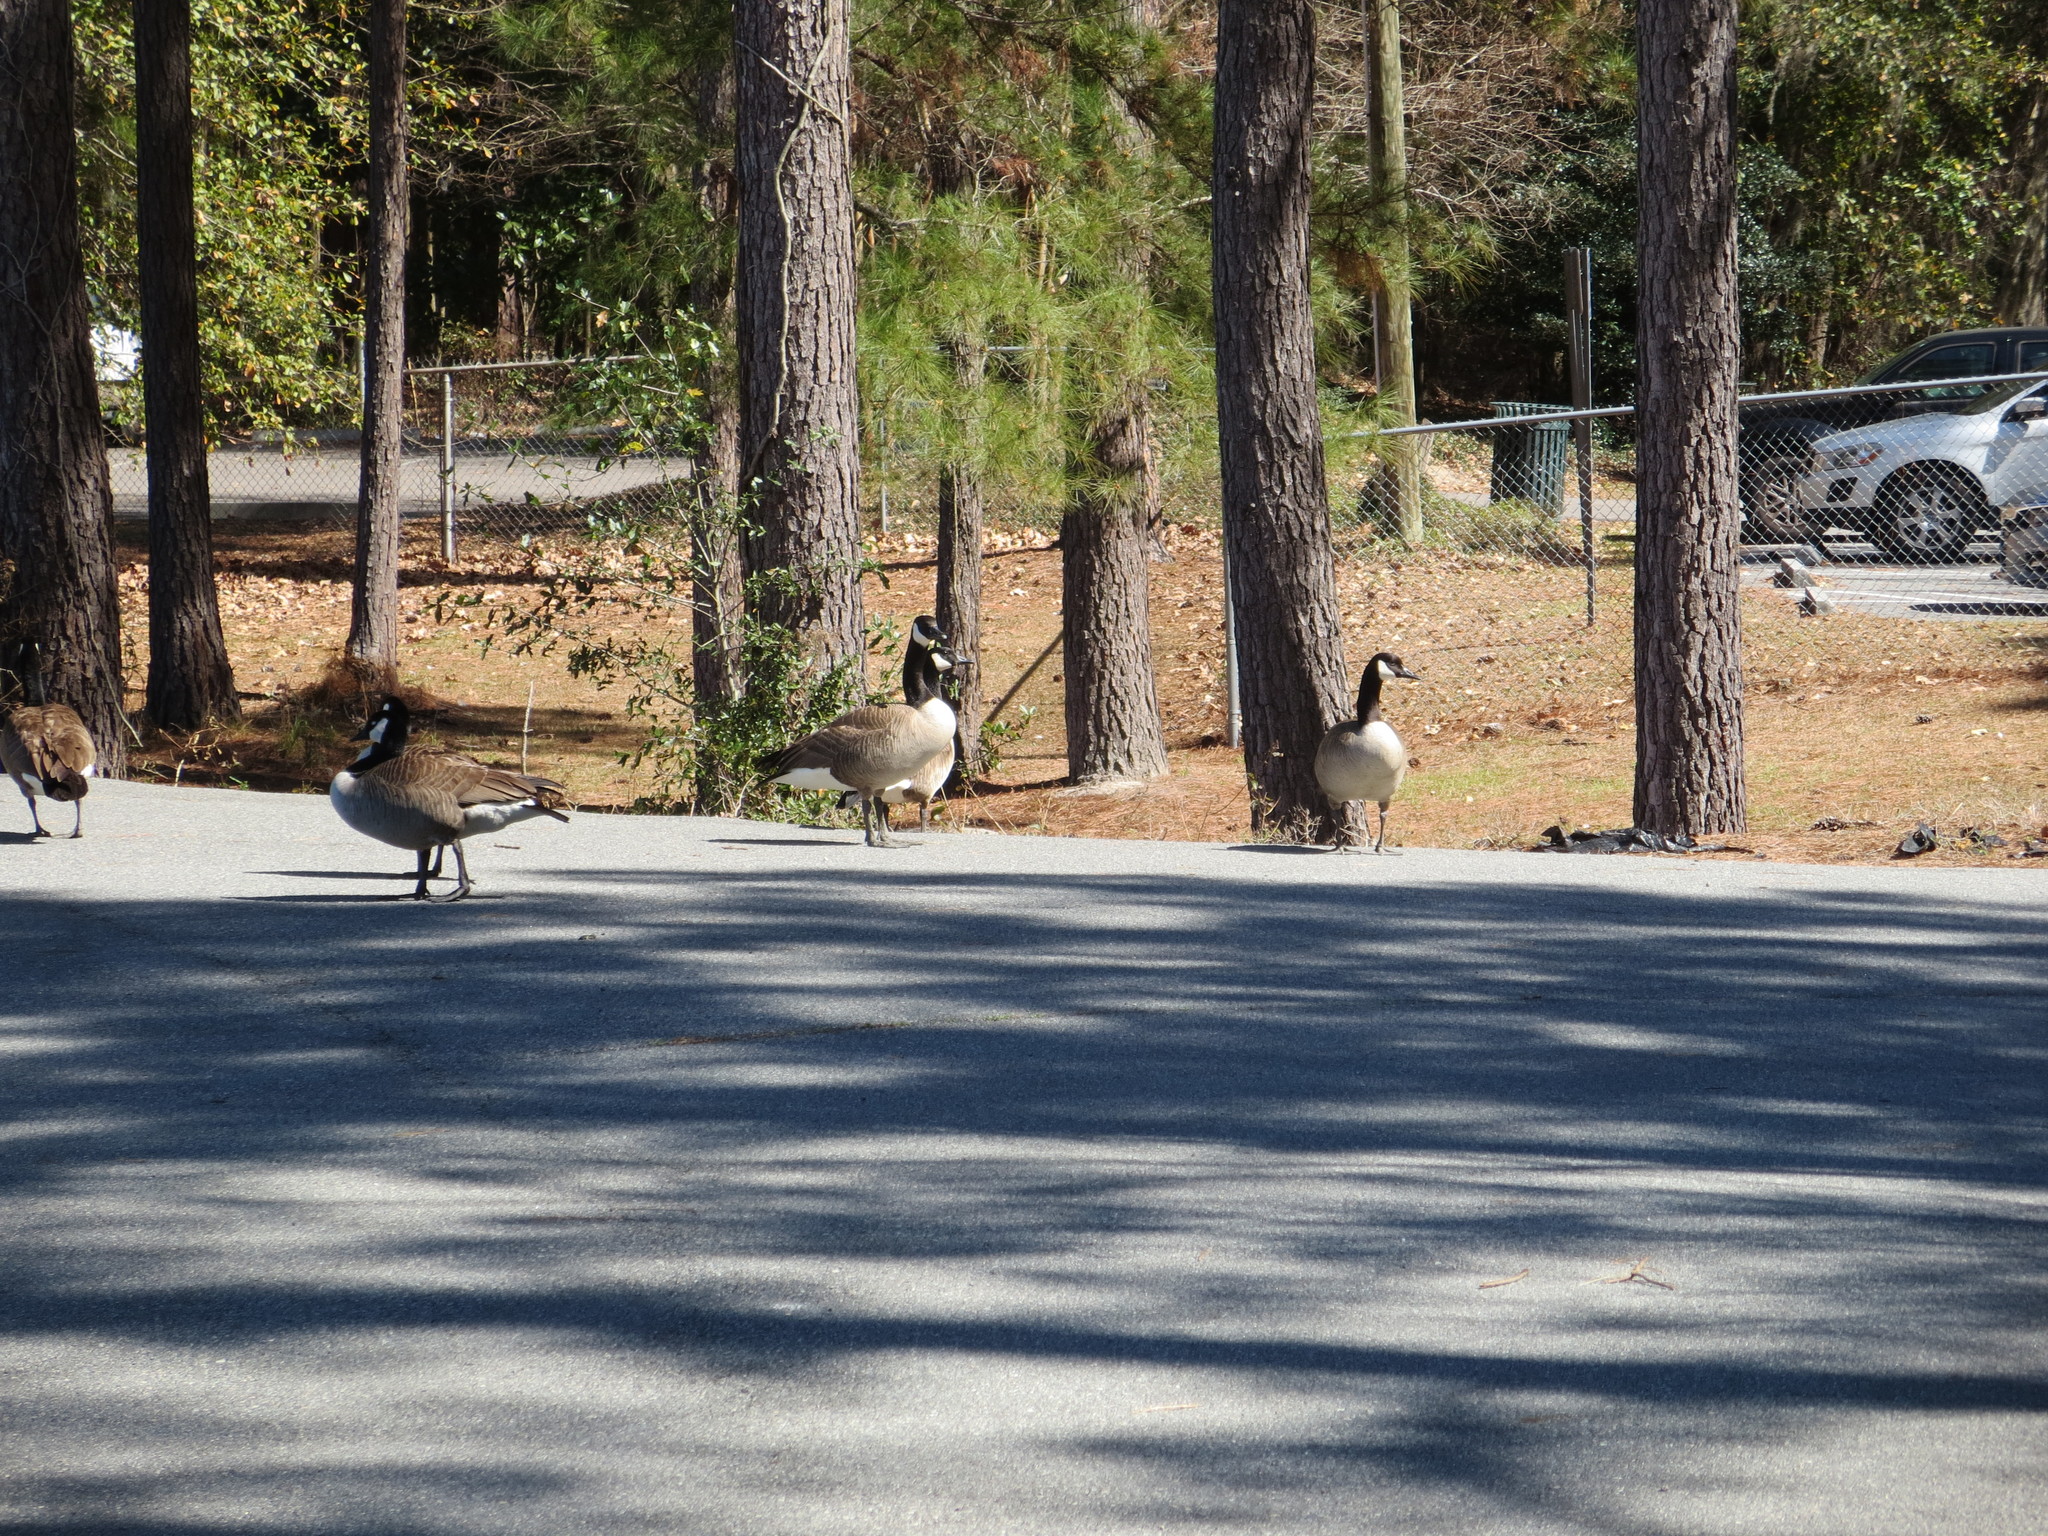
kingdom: Animalia
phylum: Chordata
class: Aves
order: Anseriformes
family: Anatidae
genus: Branta
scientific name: Branta canadensis
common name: Canada goose
